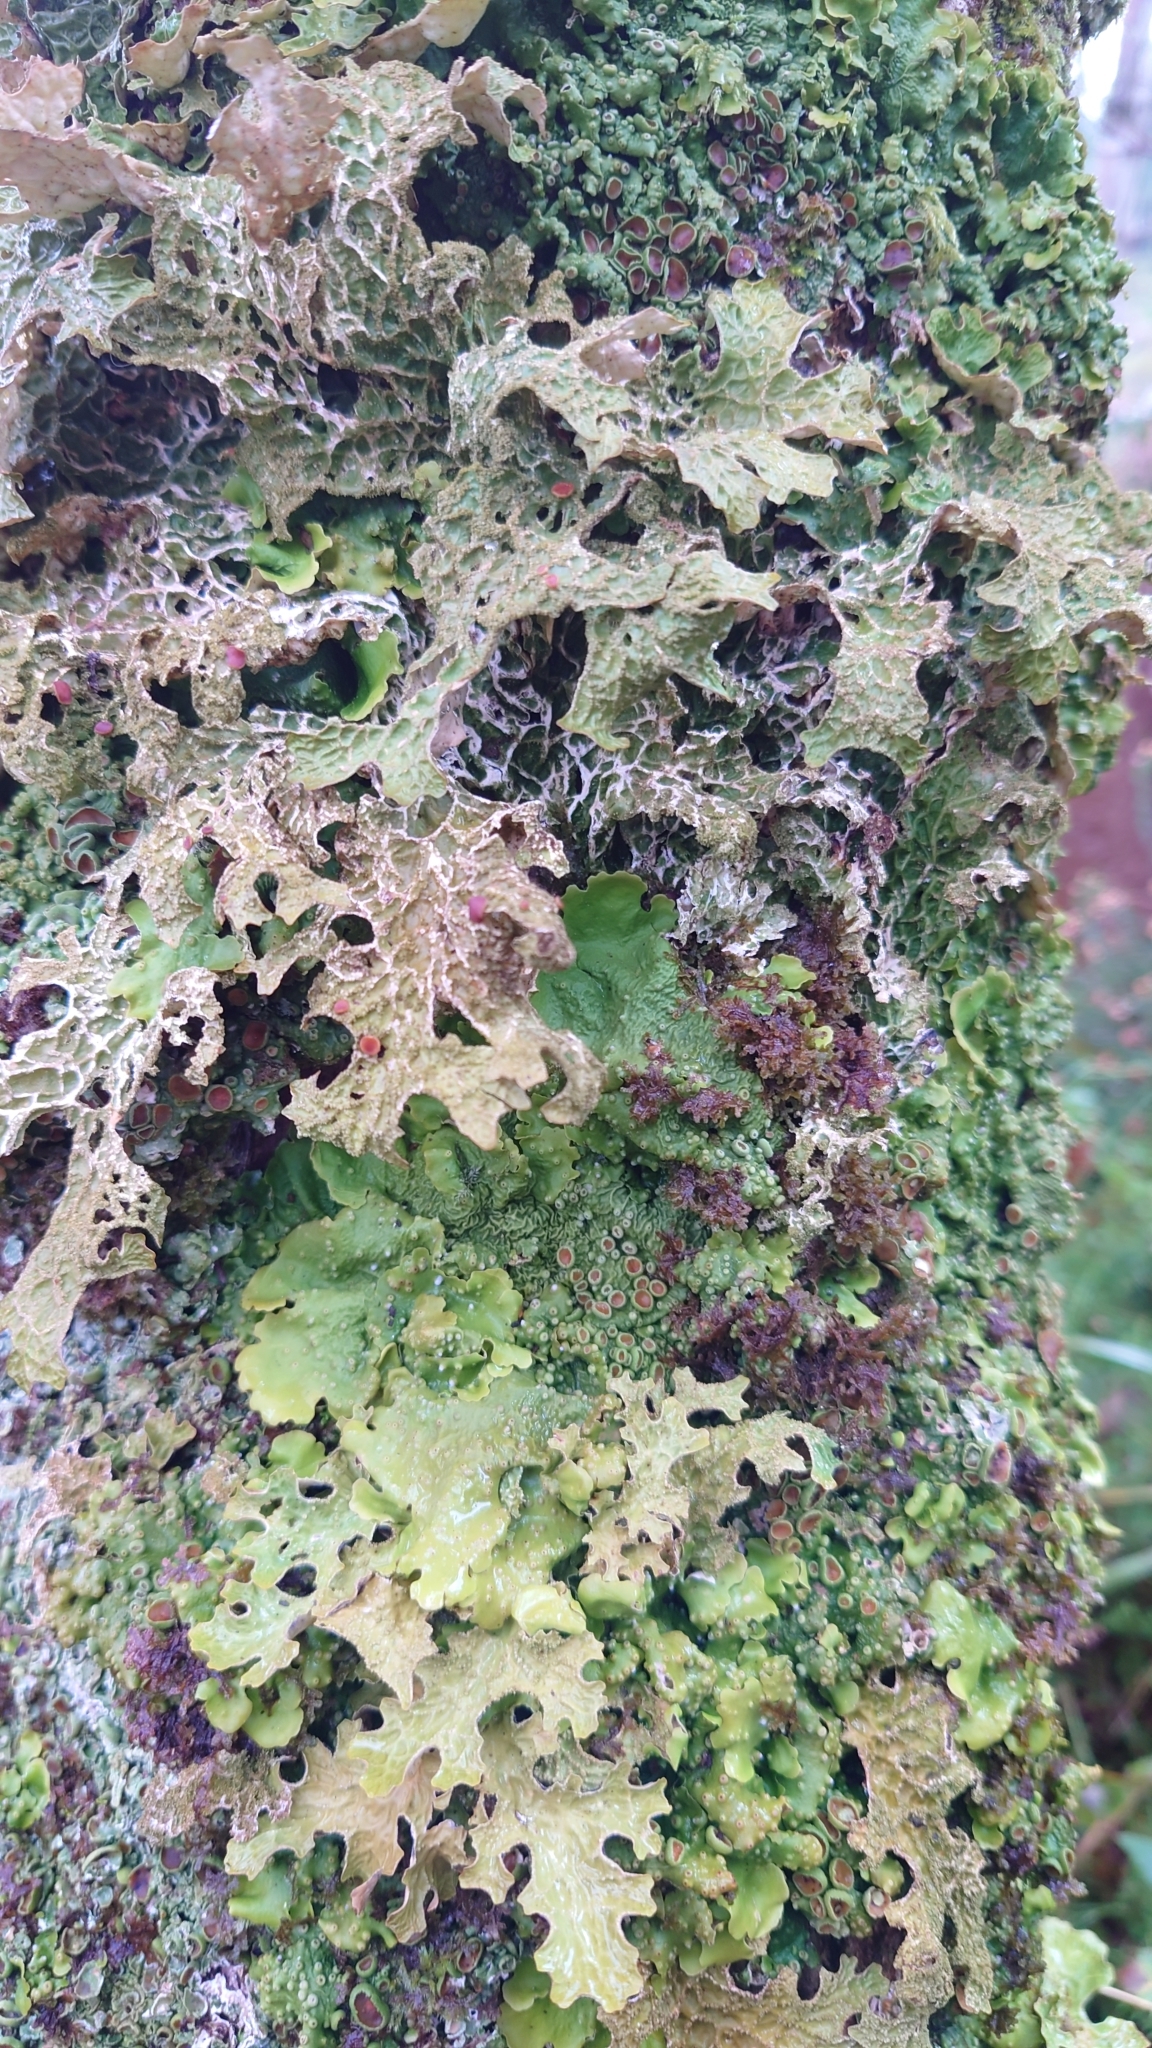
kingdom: Fungi
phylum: Ascomycota
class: Lecanoromycetes
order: Peltigerales
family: Lobariaceae
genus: Lobaria
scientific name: Lobaria pulmonaria
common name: Lungwort
